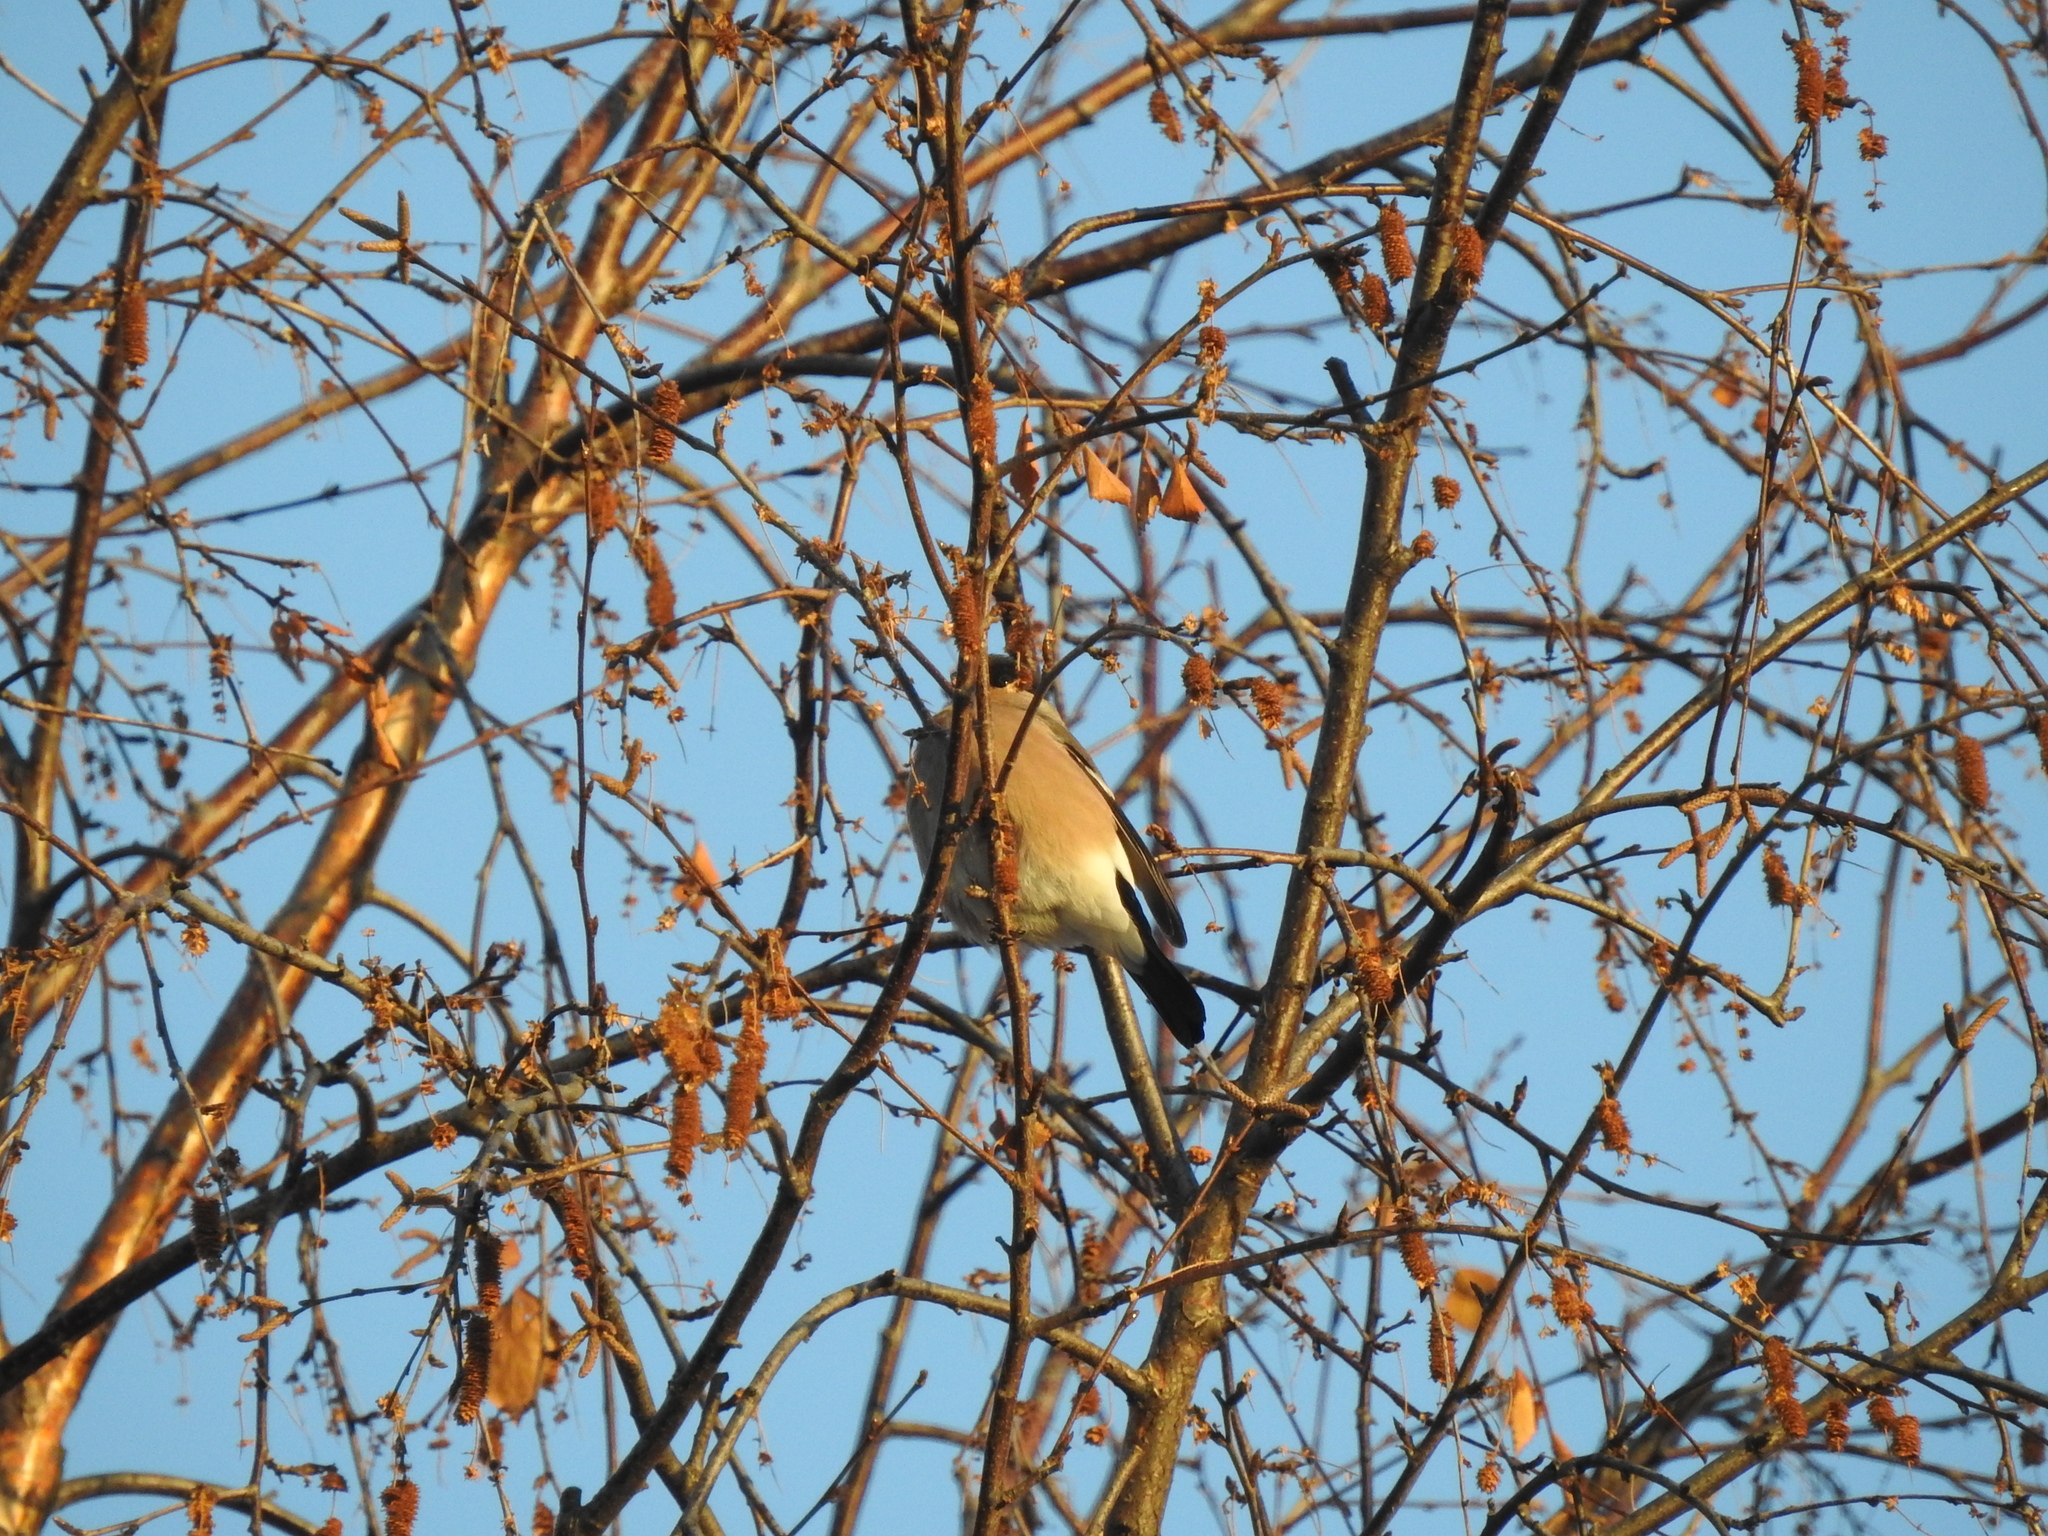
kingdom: Animalia
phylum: Chordata
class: Aves
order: Passeriformes
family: Fringillidae
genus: Pyrrhula
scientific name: Pyrrhula pyrrhula
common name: Eurasian bullfinch
